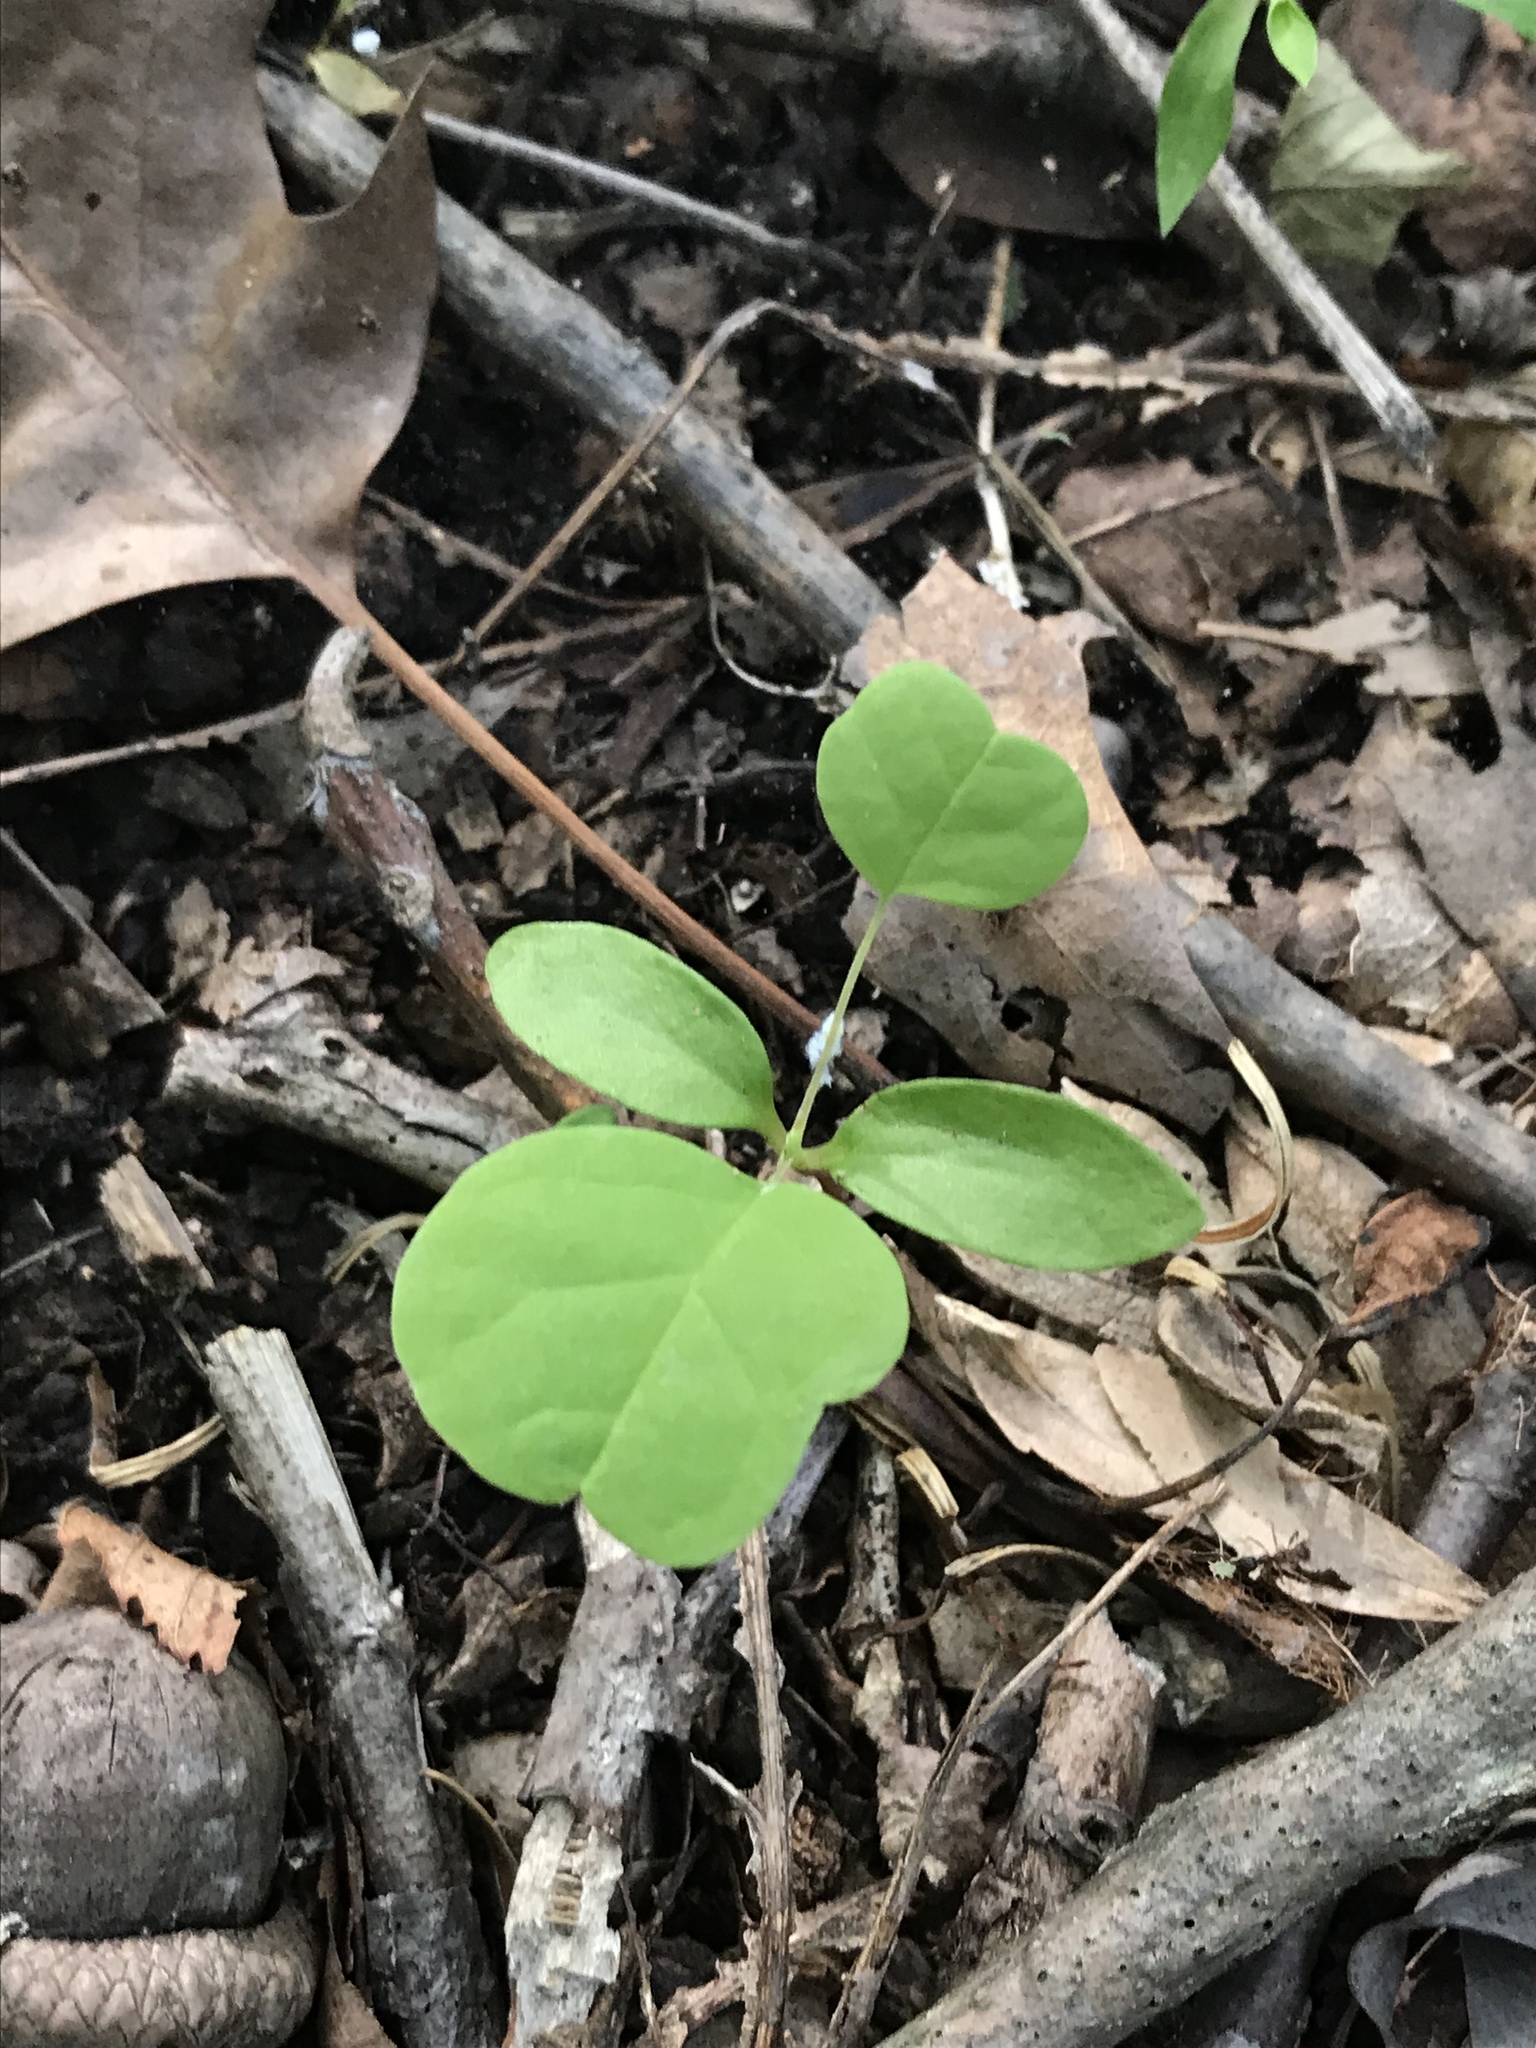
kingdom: Plantae
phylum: Tracheophyta
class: Magnoliopsida
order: Magnoliales
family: Magnoliaceae
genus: Liriodendron
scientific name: Liriodendron tulipifera
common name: Tulip tree
